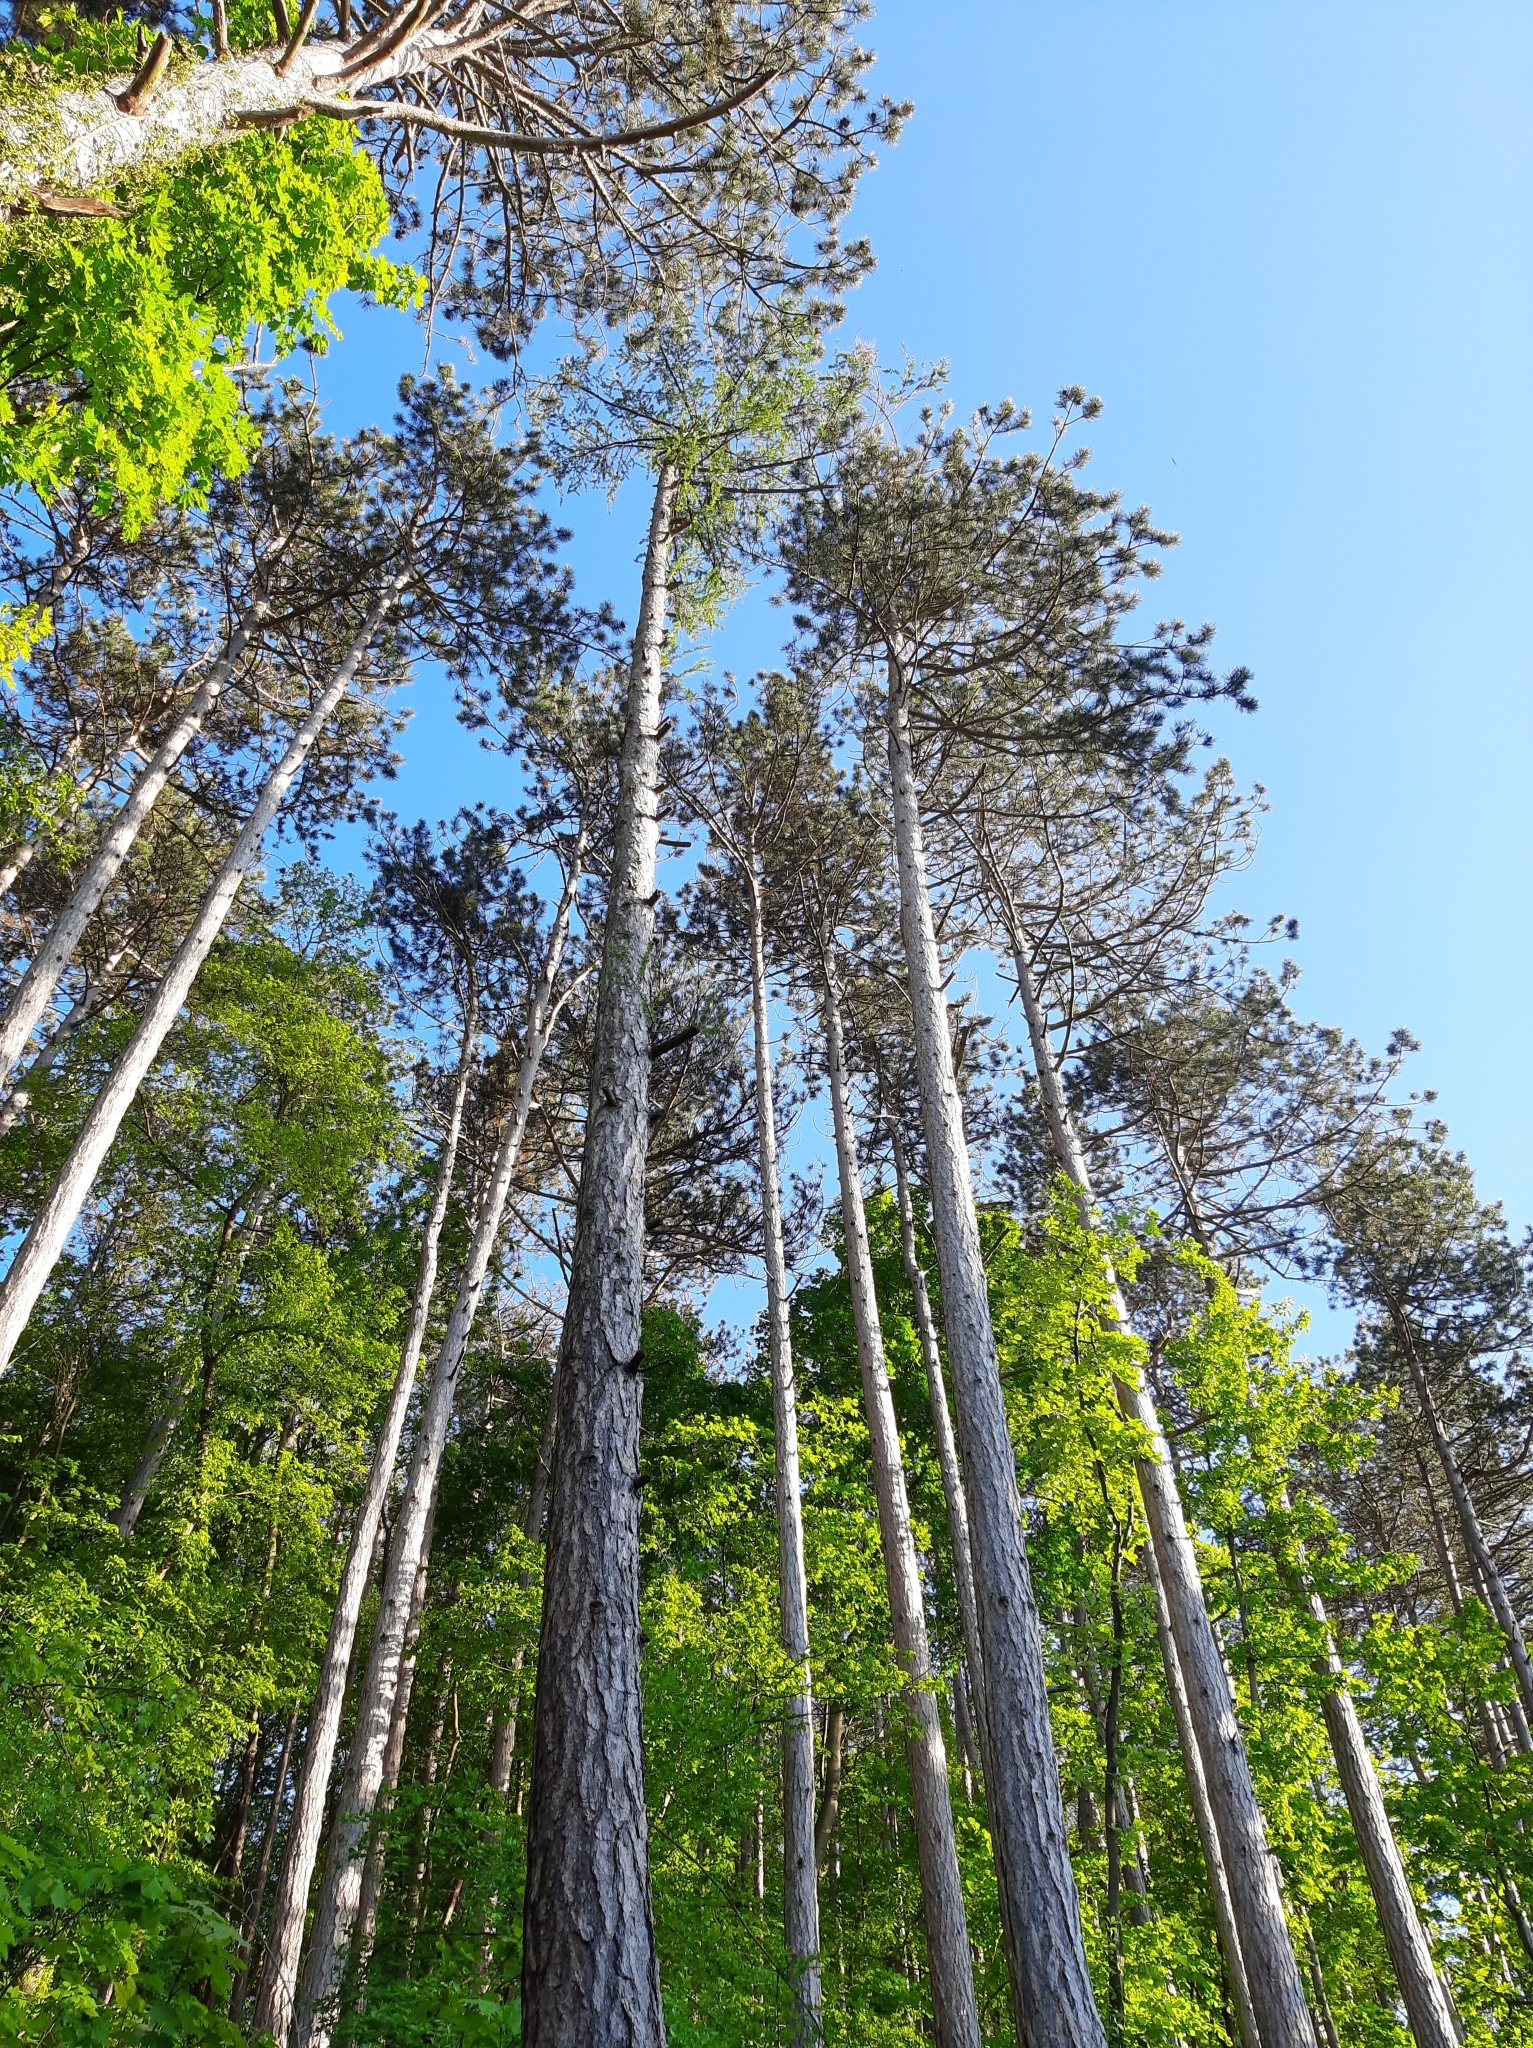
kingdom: Plantae
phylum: Tracheophyta
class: Pinopsida
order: Pinales
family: Pinaceae
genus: Pinus
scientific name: Pinus nigra
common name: Austrian pine
